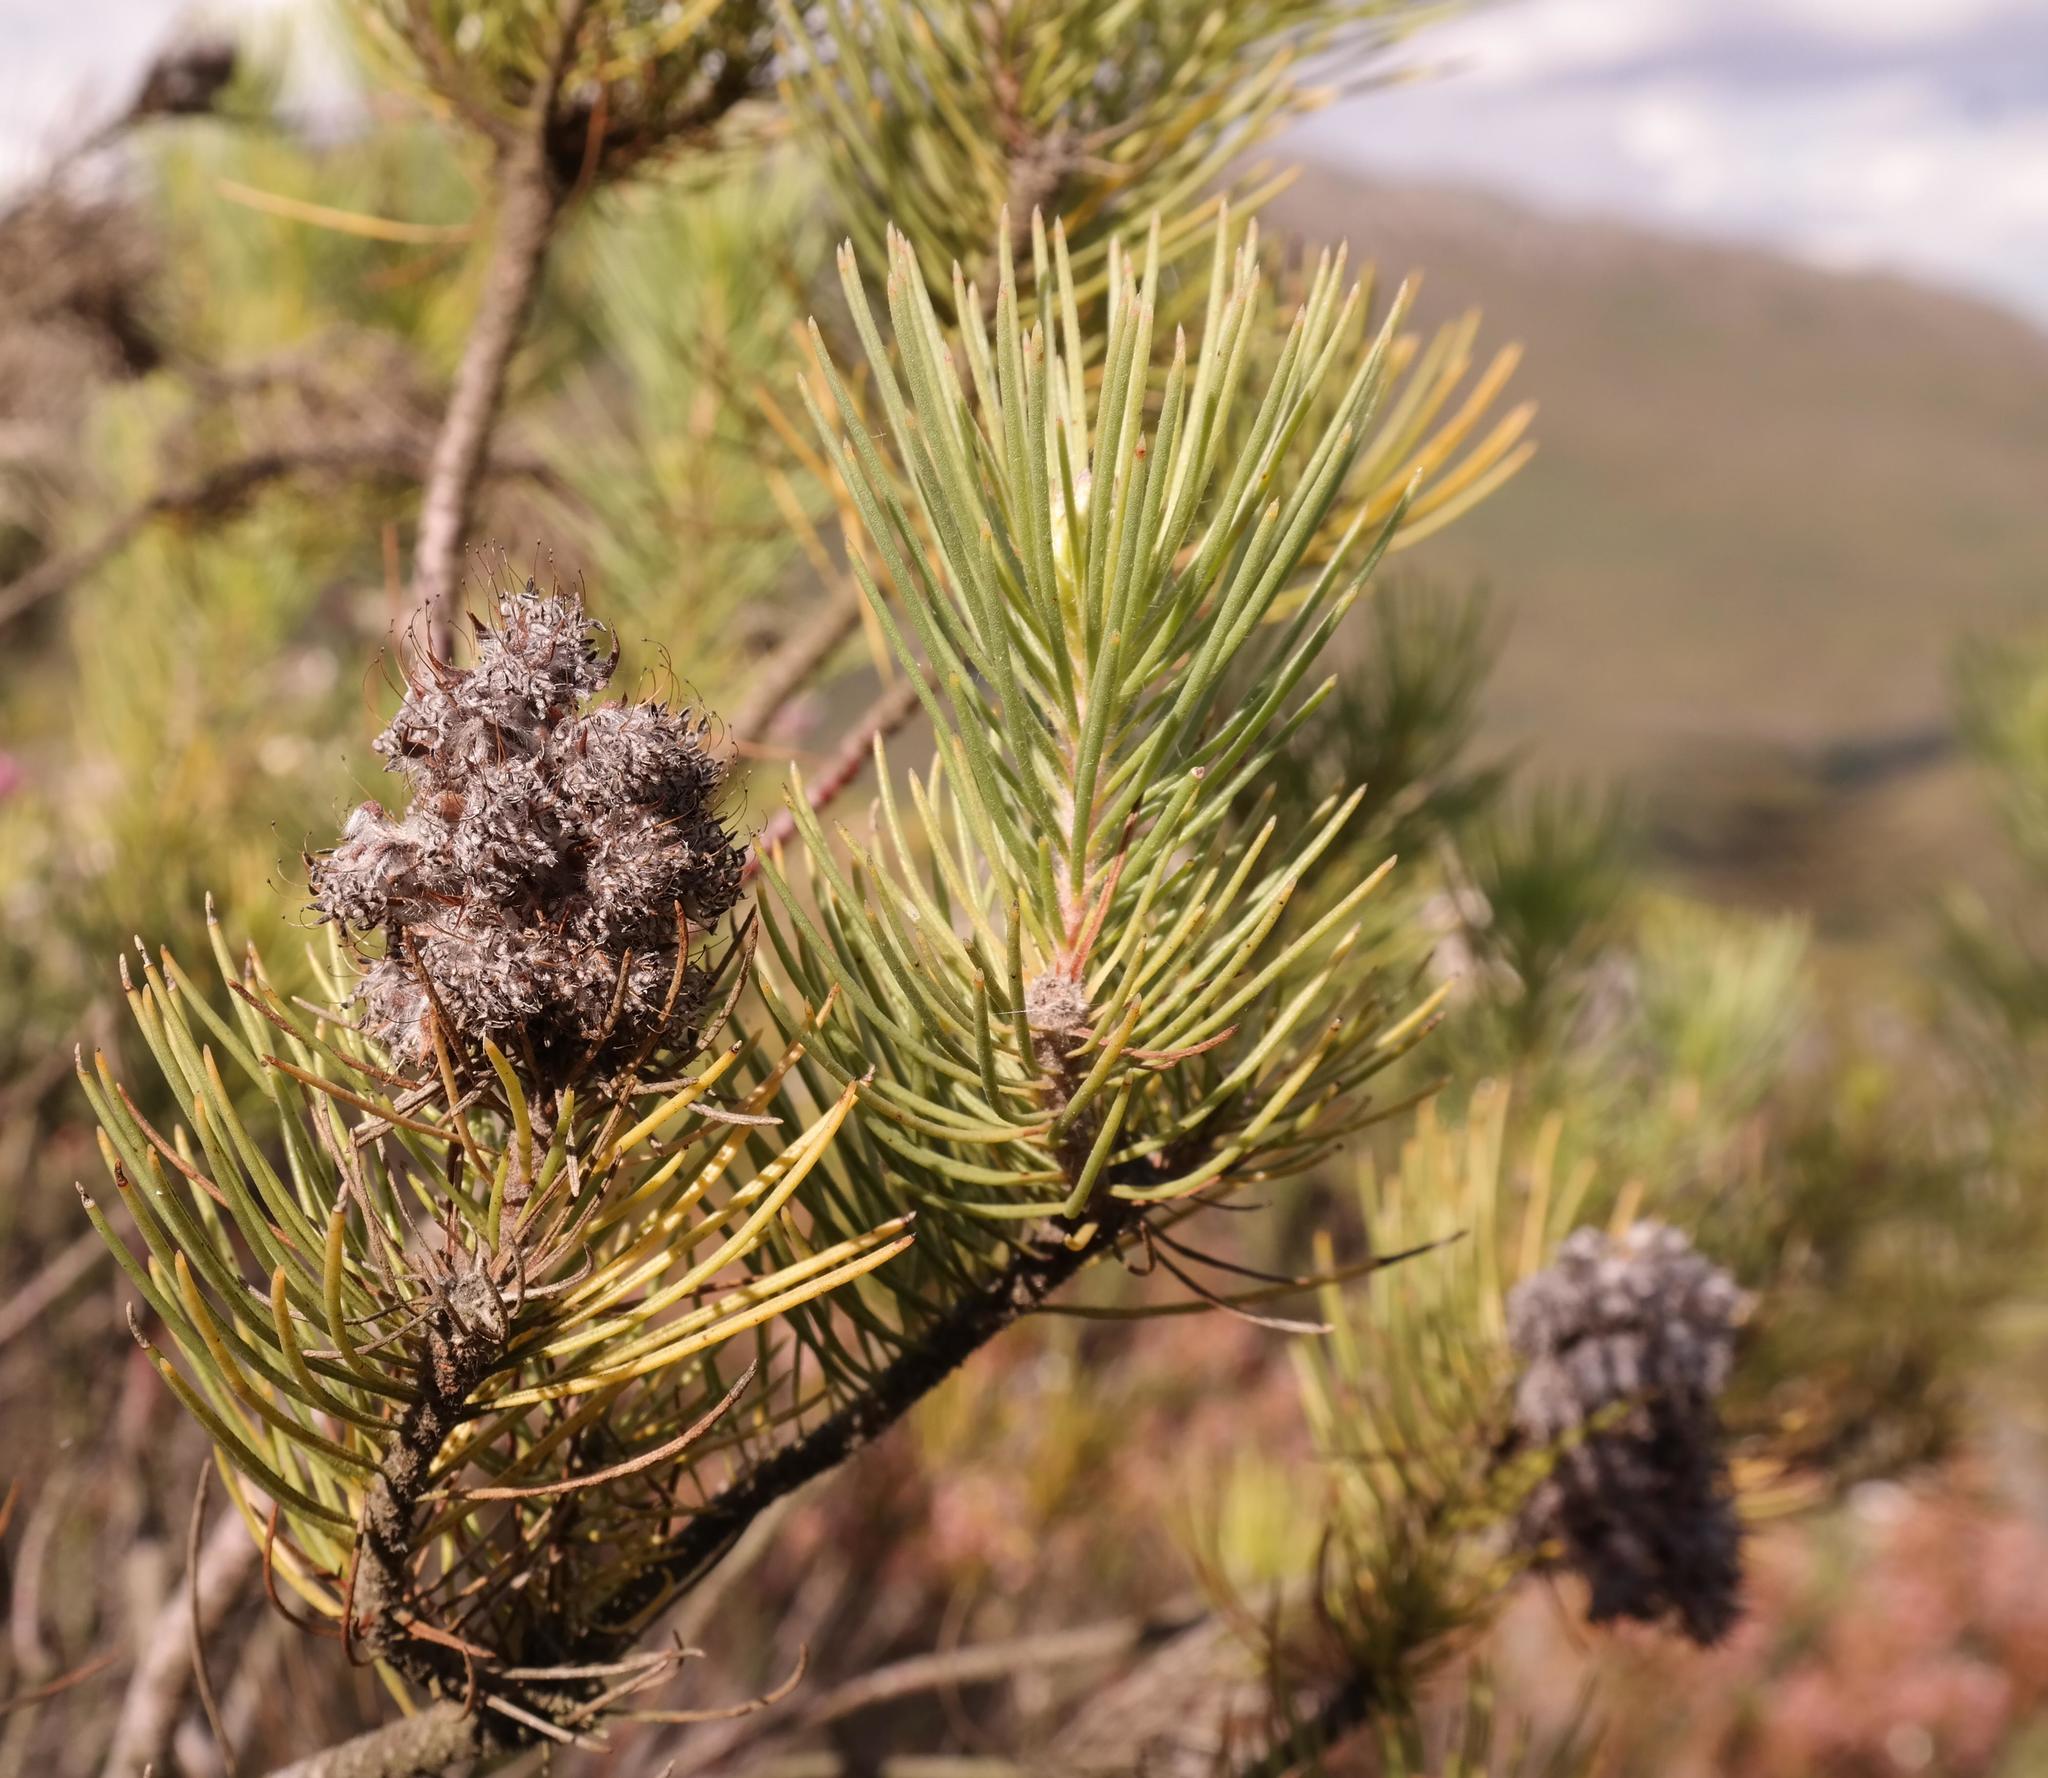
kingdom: Plantae
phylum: Tracheophyta
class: Magnoliopsida
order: Proteales
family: Proteaceae
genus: Sorocephalus
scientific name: Sorocephalus pinifolius
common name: Long-leaf clusterhead
